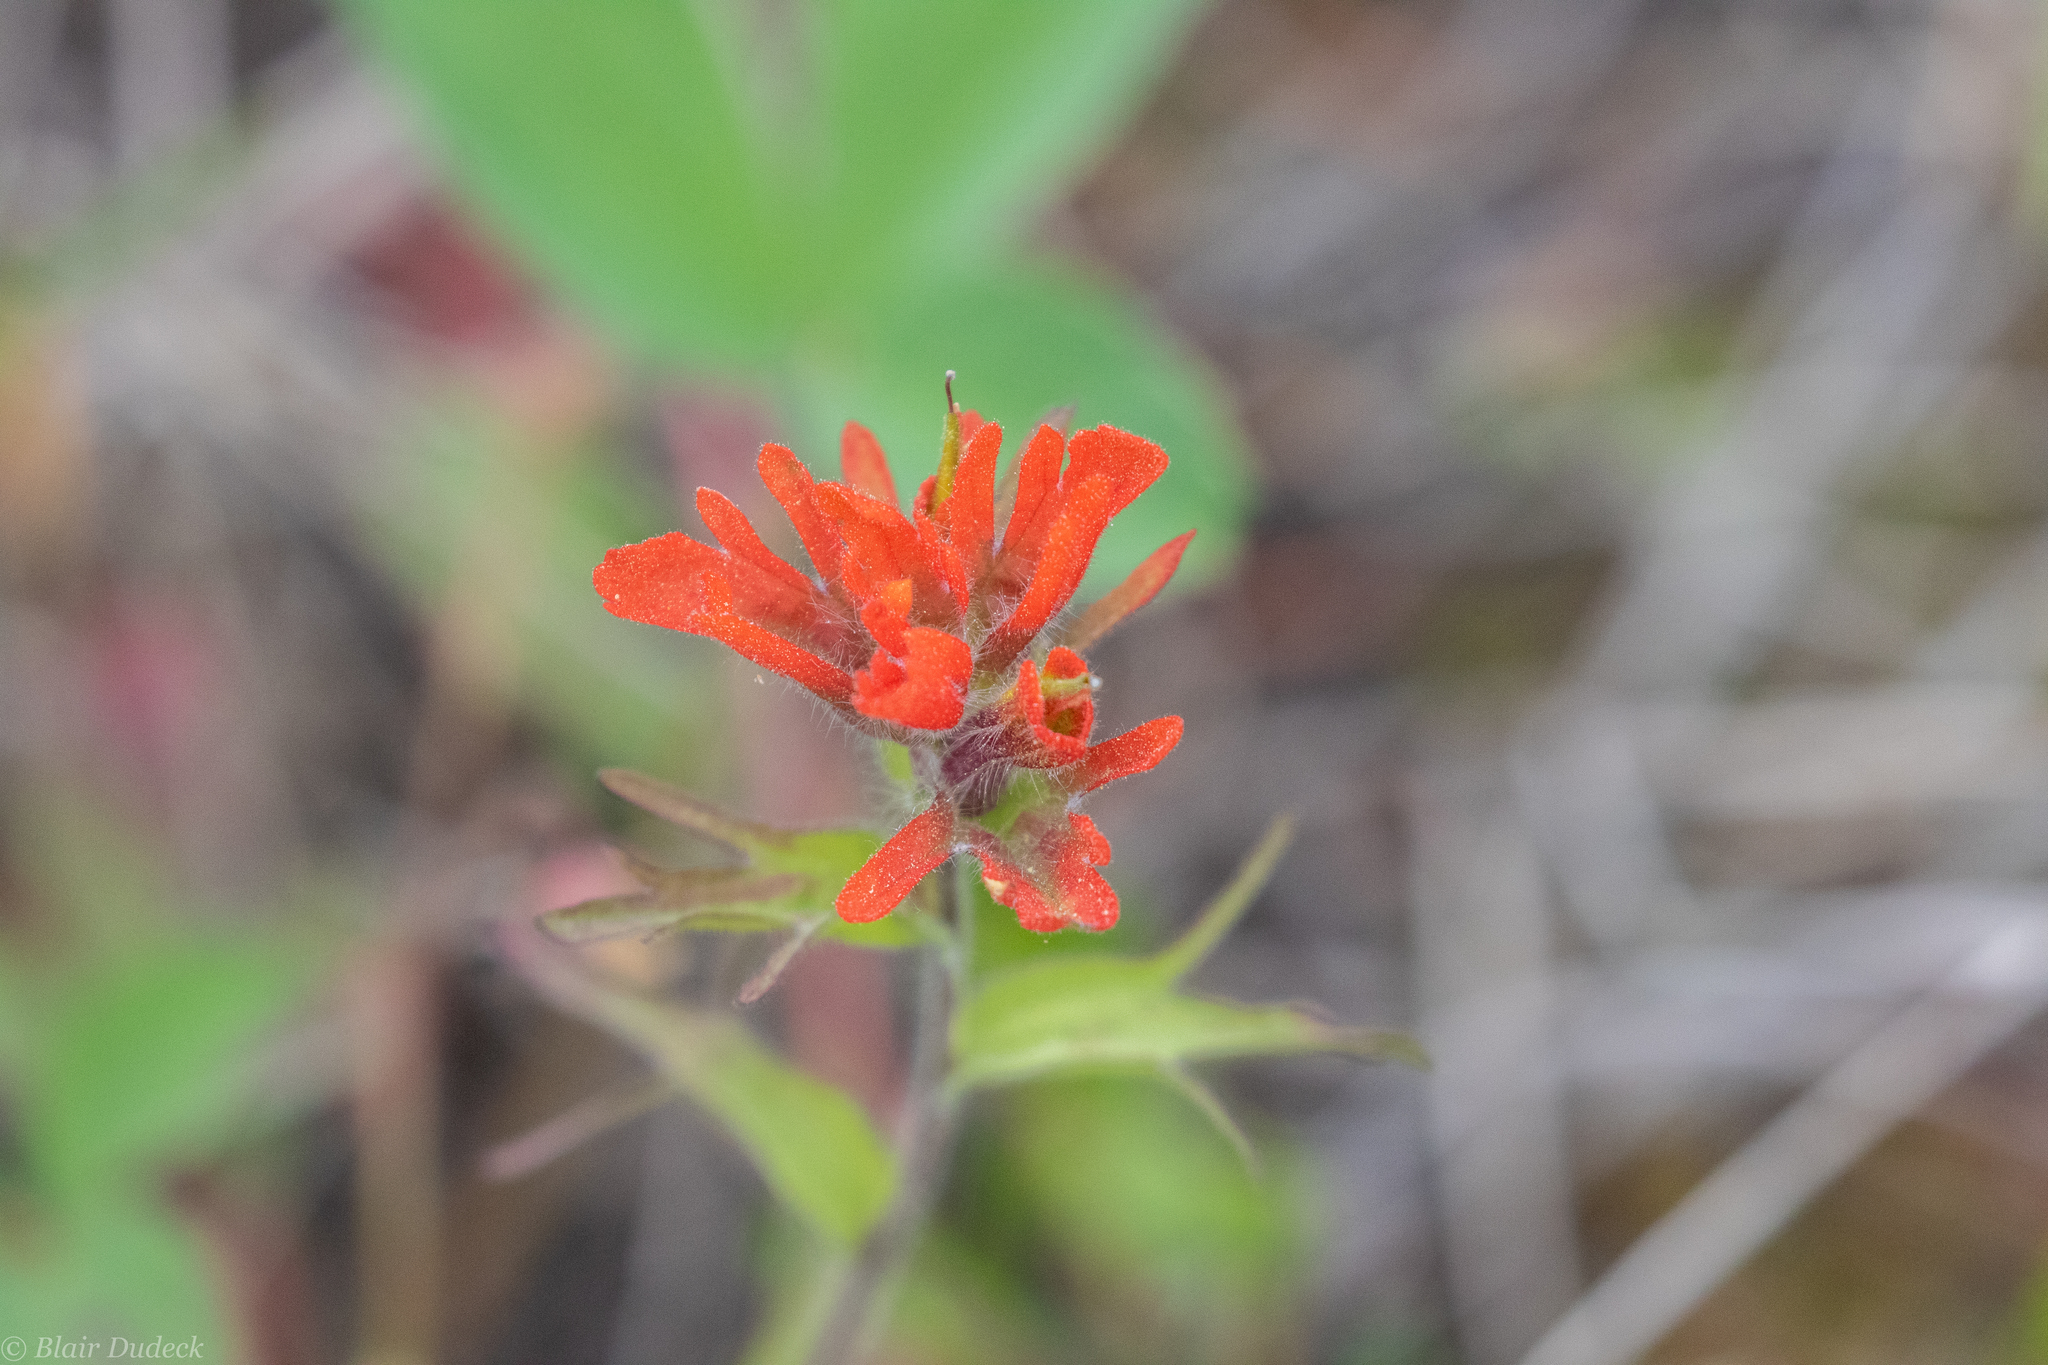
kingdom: Plantae
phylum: Tracheophyta
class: Magnoliopsida
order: Lamiales
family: Orobanchaceae
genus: Castilleja
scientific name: Castilleja hispida
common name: Bristly paintbrush
